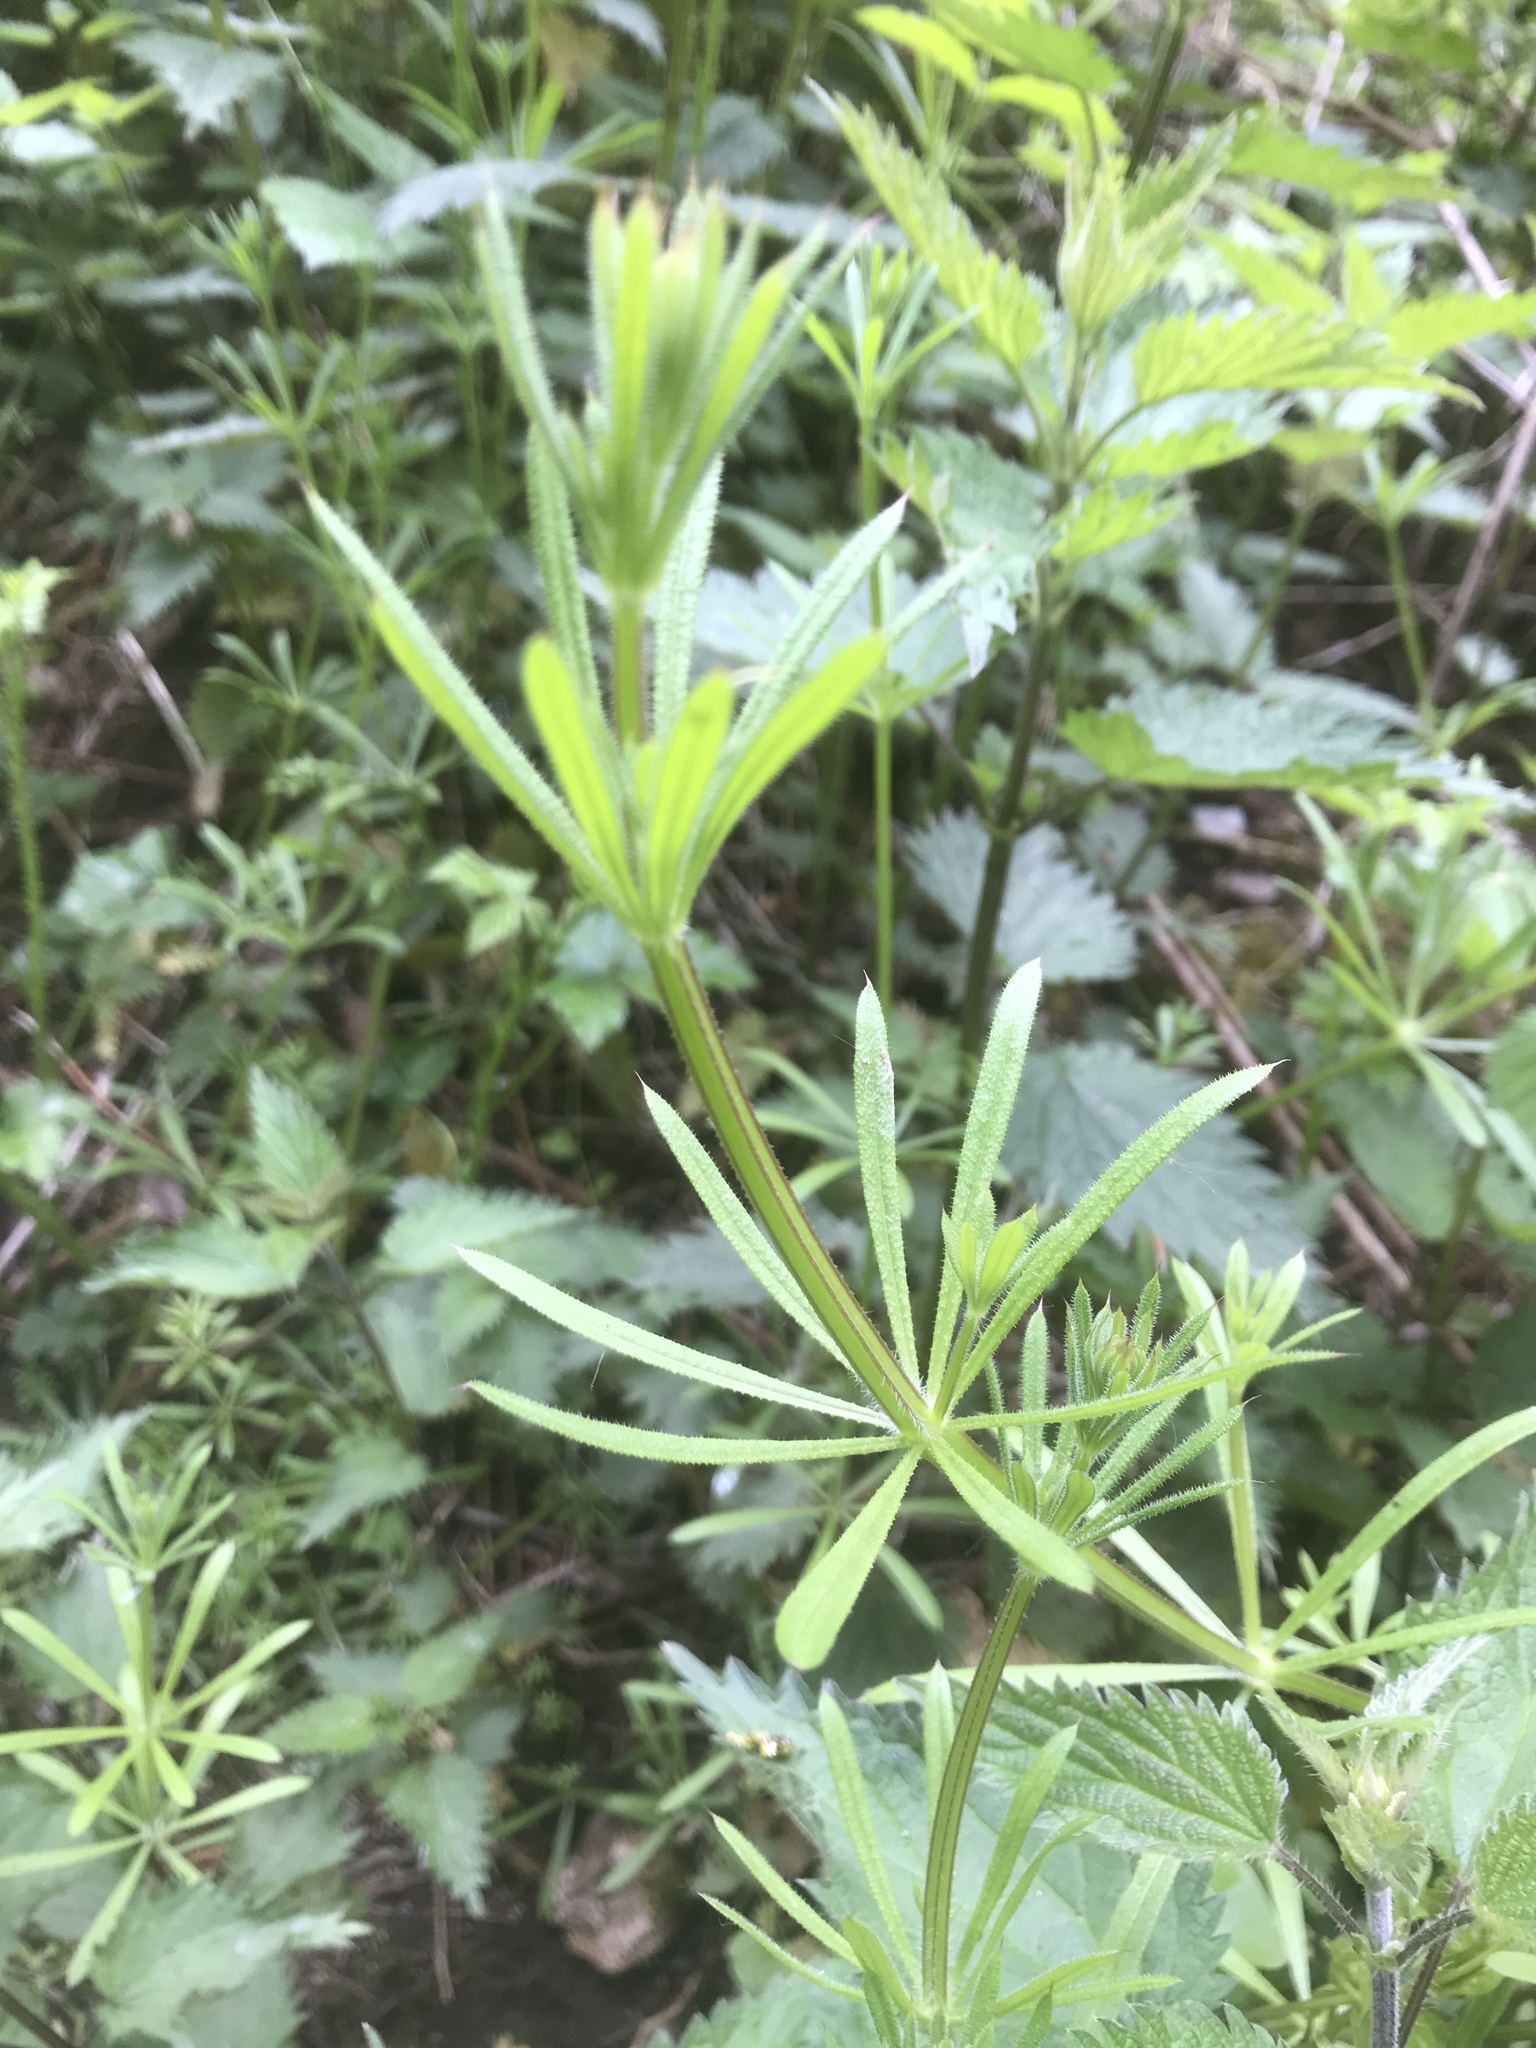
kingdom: Plantae
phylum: Tracheophyta
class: Magnoliopsida
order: Gentianales
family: Rubiaceae
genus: Galium
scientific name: Galium aparine
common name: Cleavers
